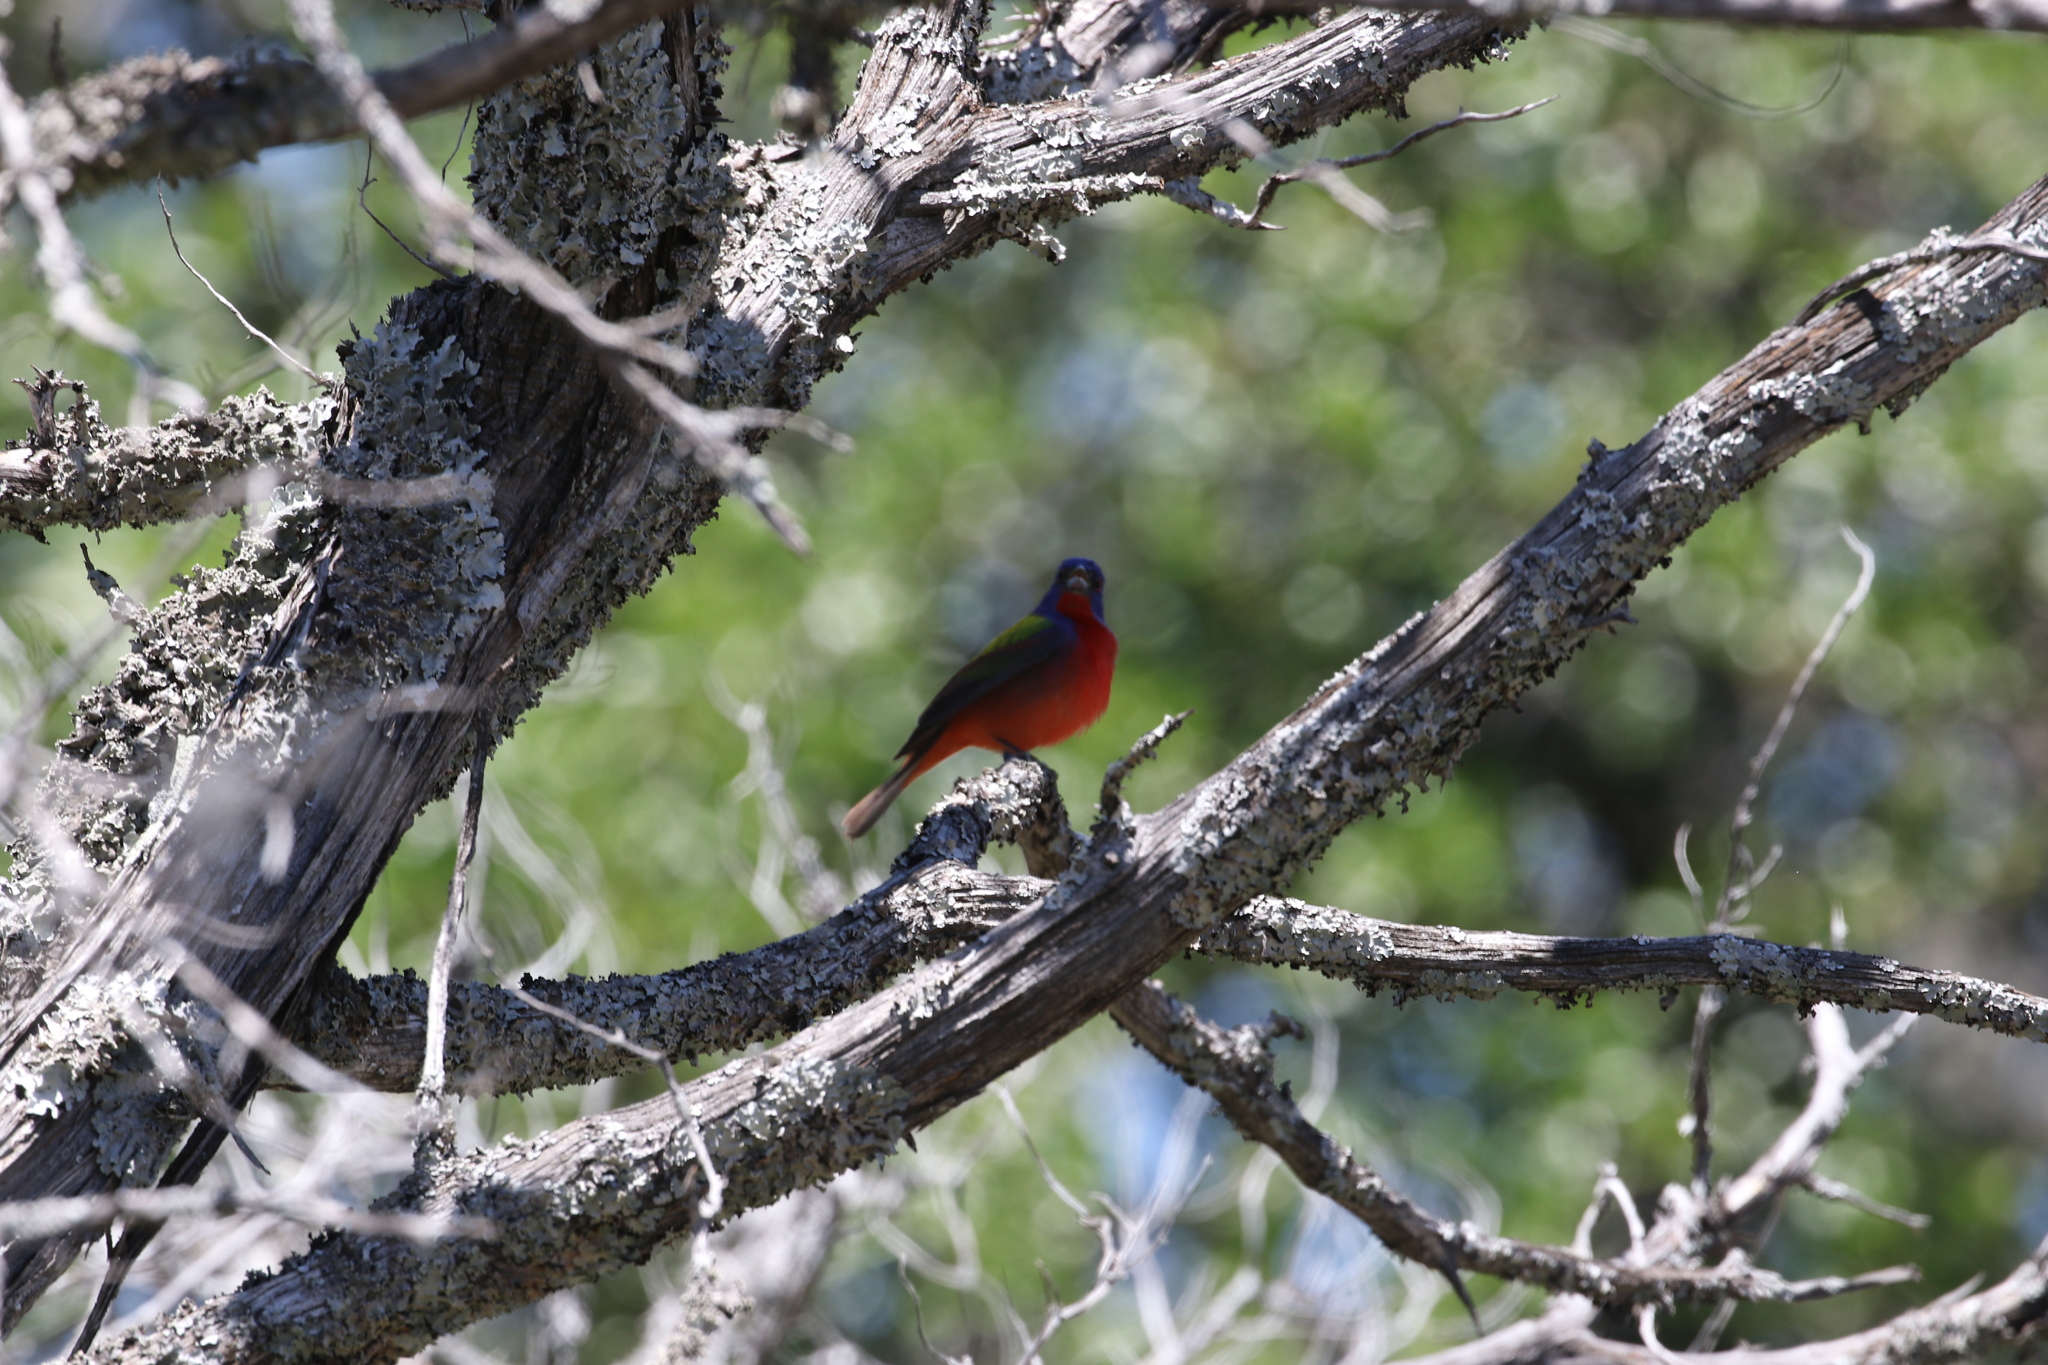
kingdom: Animalia
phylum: Chordata
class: Aves
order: Passeriformes
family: Cardinalidae
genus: Passerina
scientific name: Passerina ciris
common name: Painted bunting
